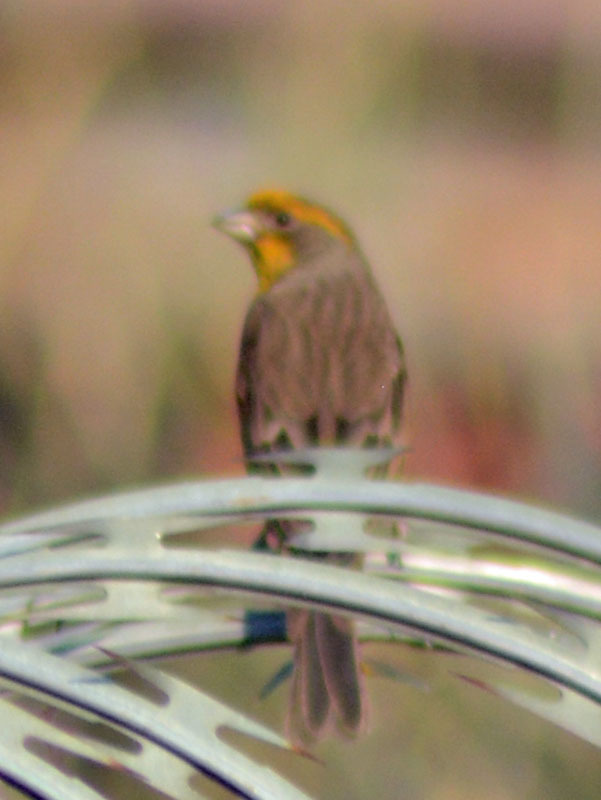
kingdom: Animalia
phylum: Chordata
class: Aves
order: Passeriformes
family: Fringillidae
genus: Haemorhous
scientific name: Haemorhous mexicanus
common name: House finch
